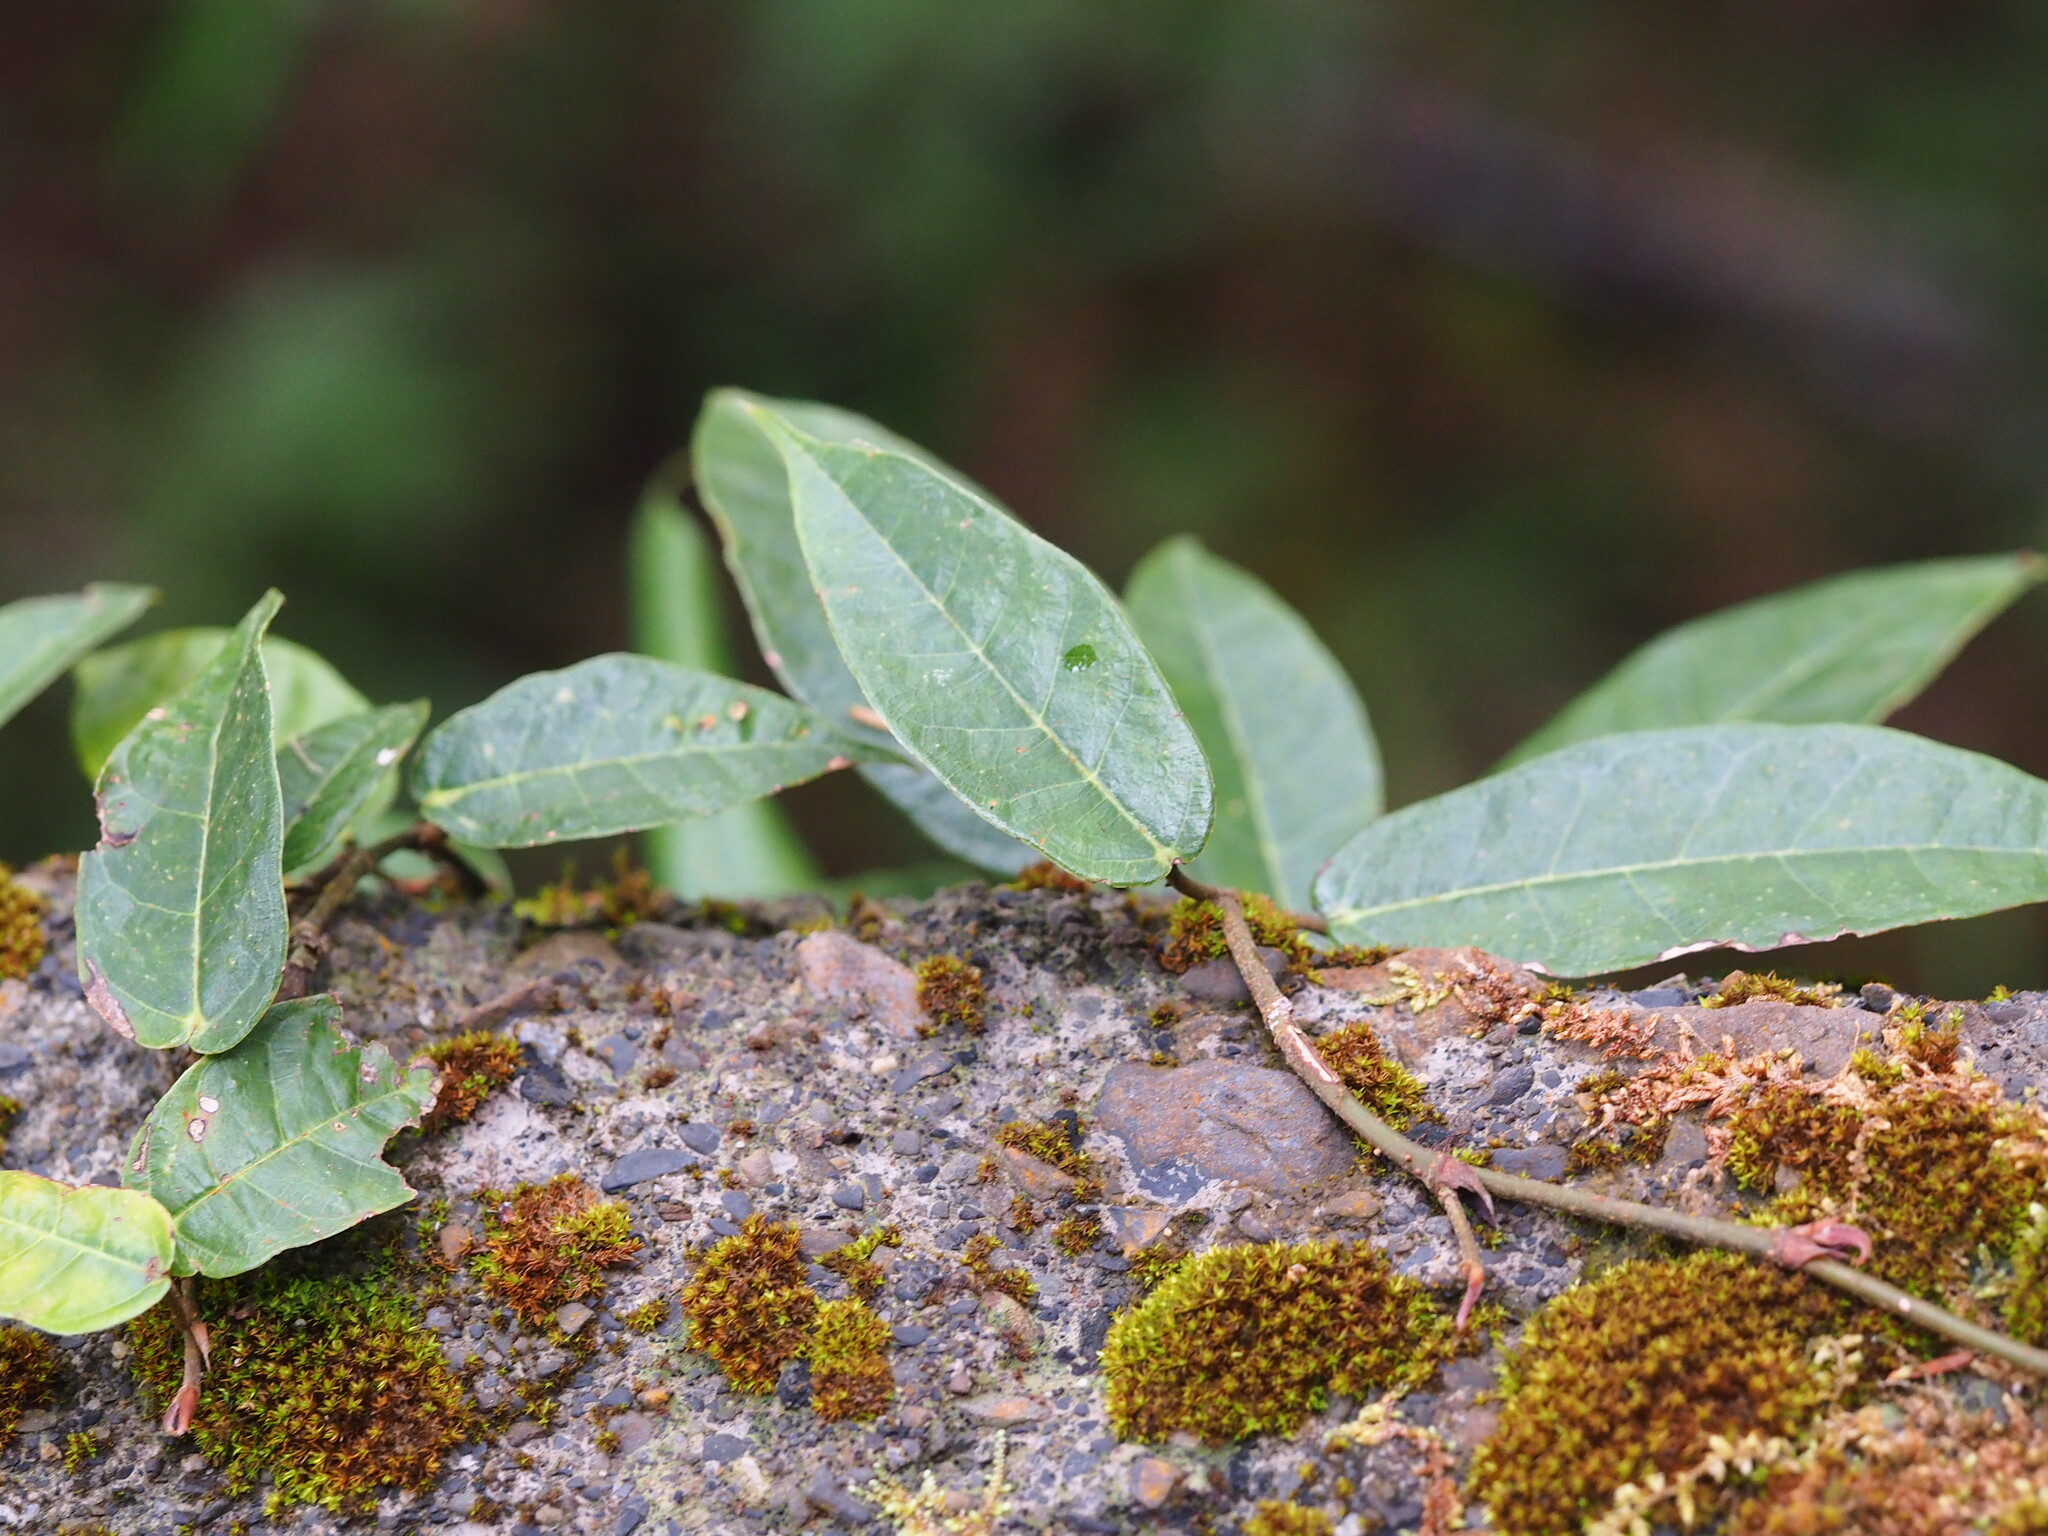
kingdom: Plantae
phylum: Tracheophyta
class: Magnoliopsida
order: Rosales
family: Moraceae
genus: Ficus
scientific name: Ficus sarmentosa
